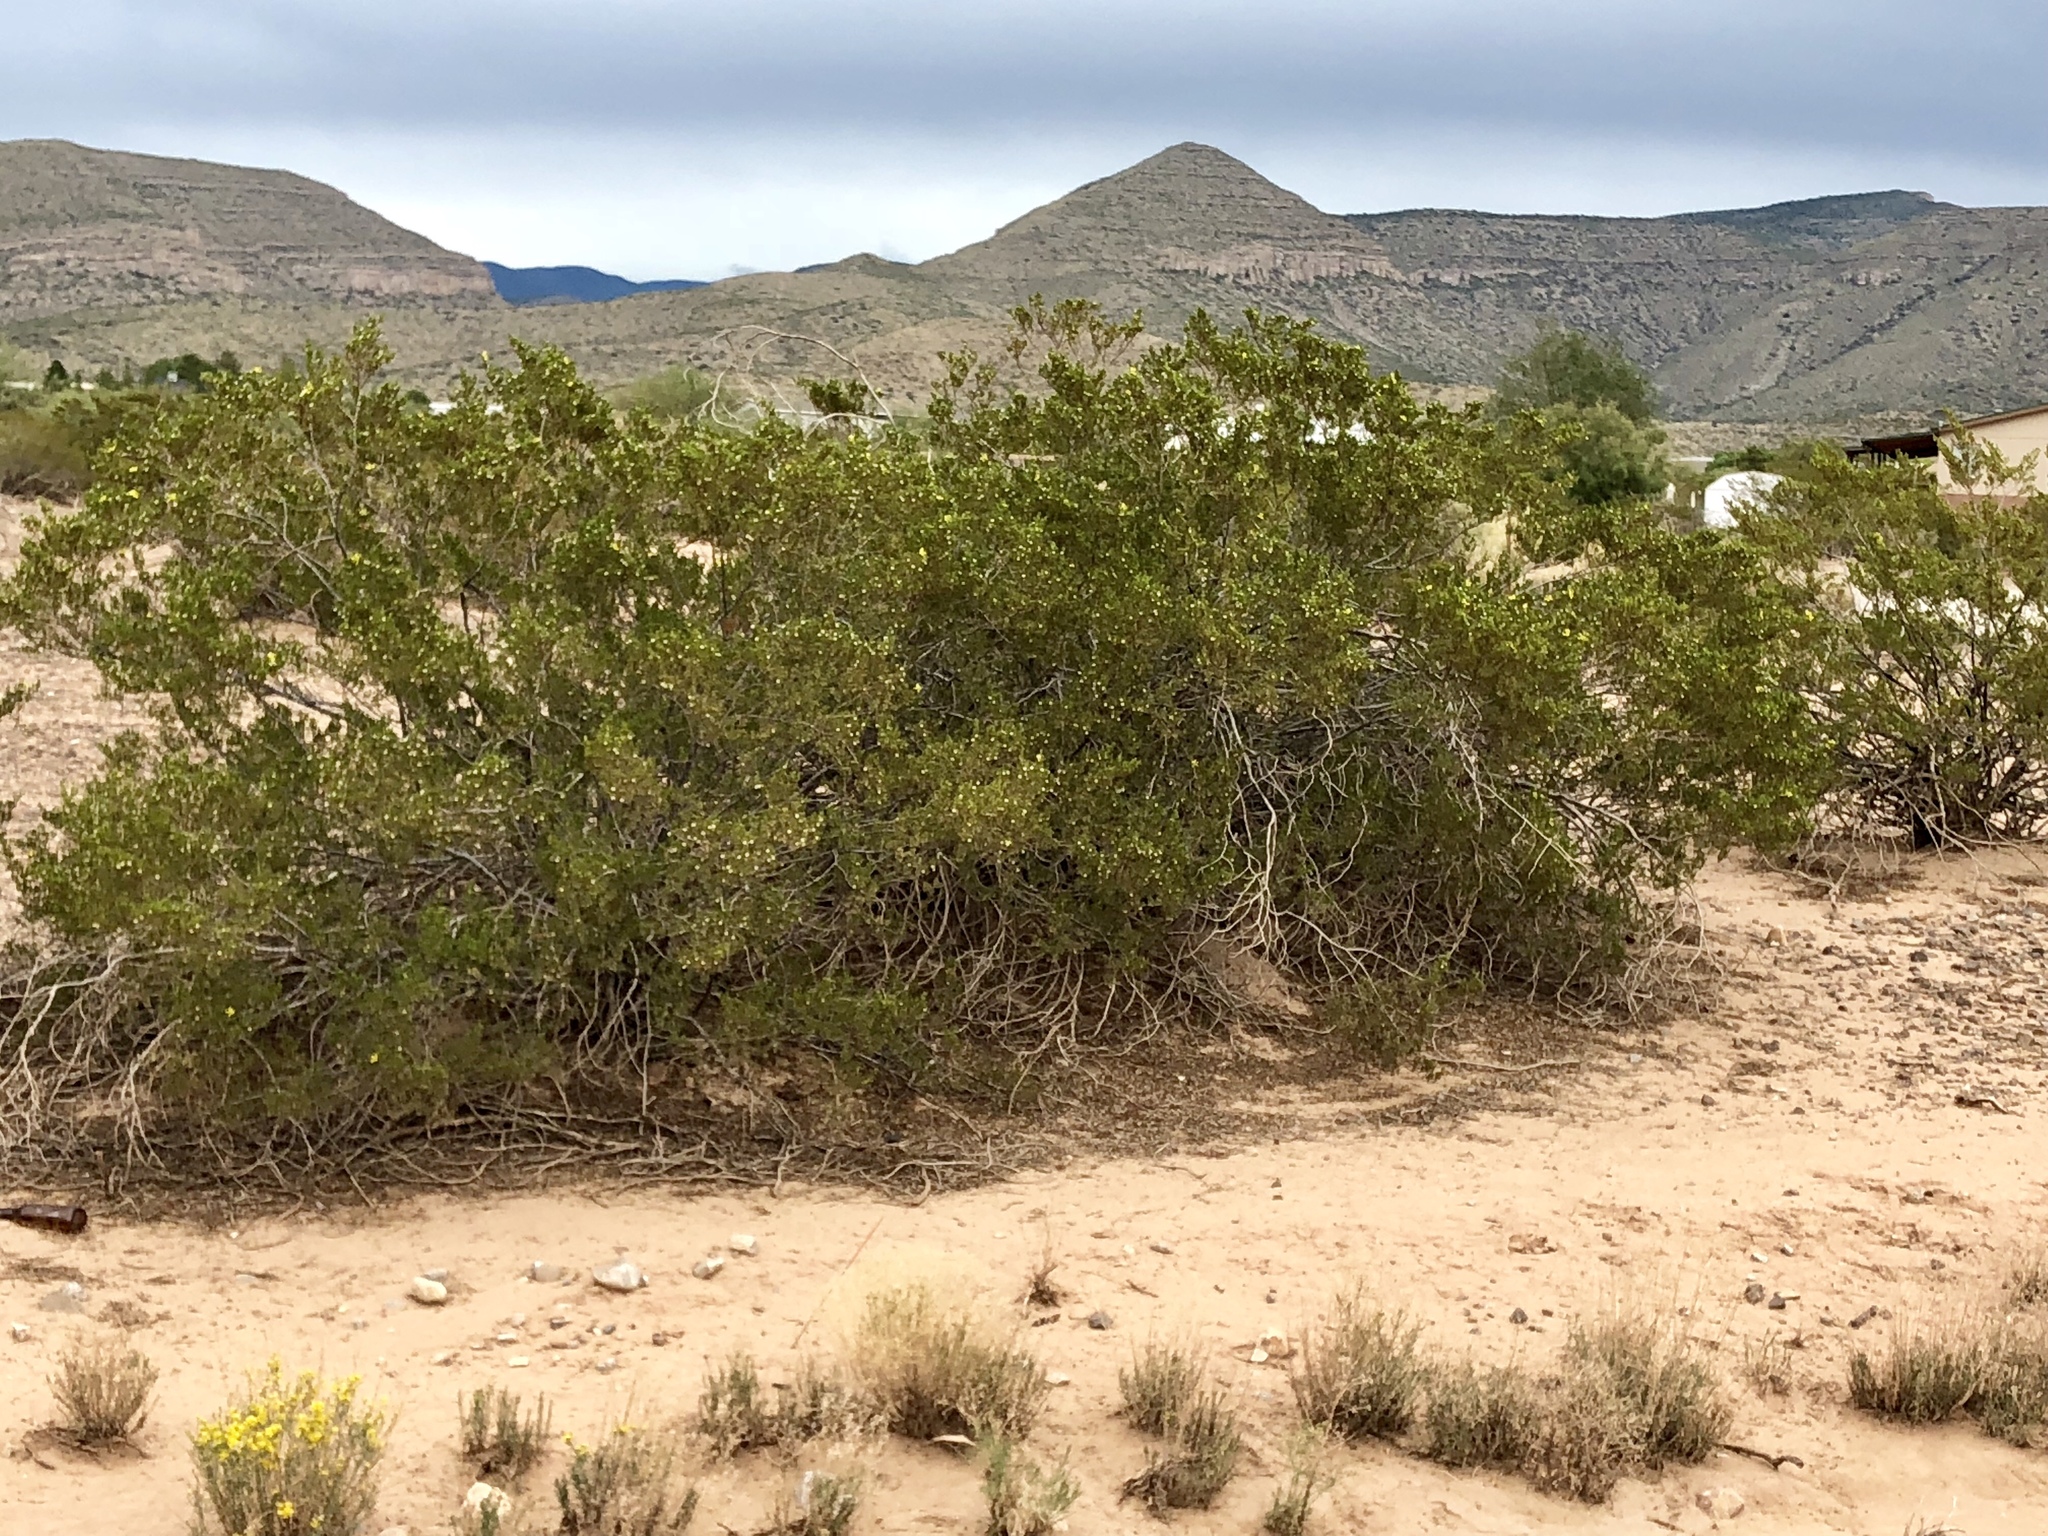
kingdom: Plantae
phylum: Tracheophyta
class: Magnoliopsida
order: Zygophyllales
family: Zygophyllaceae
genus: Larrea
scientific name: Larrea tridentata
